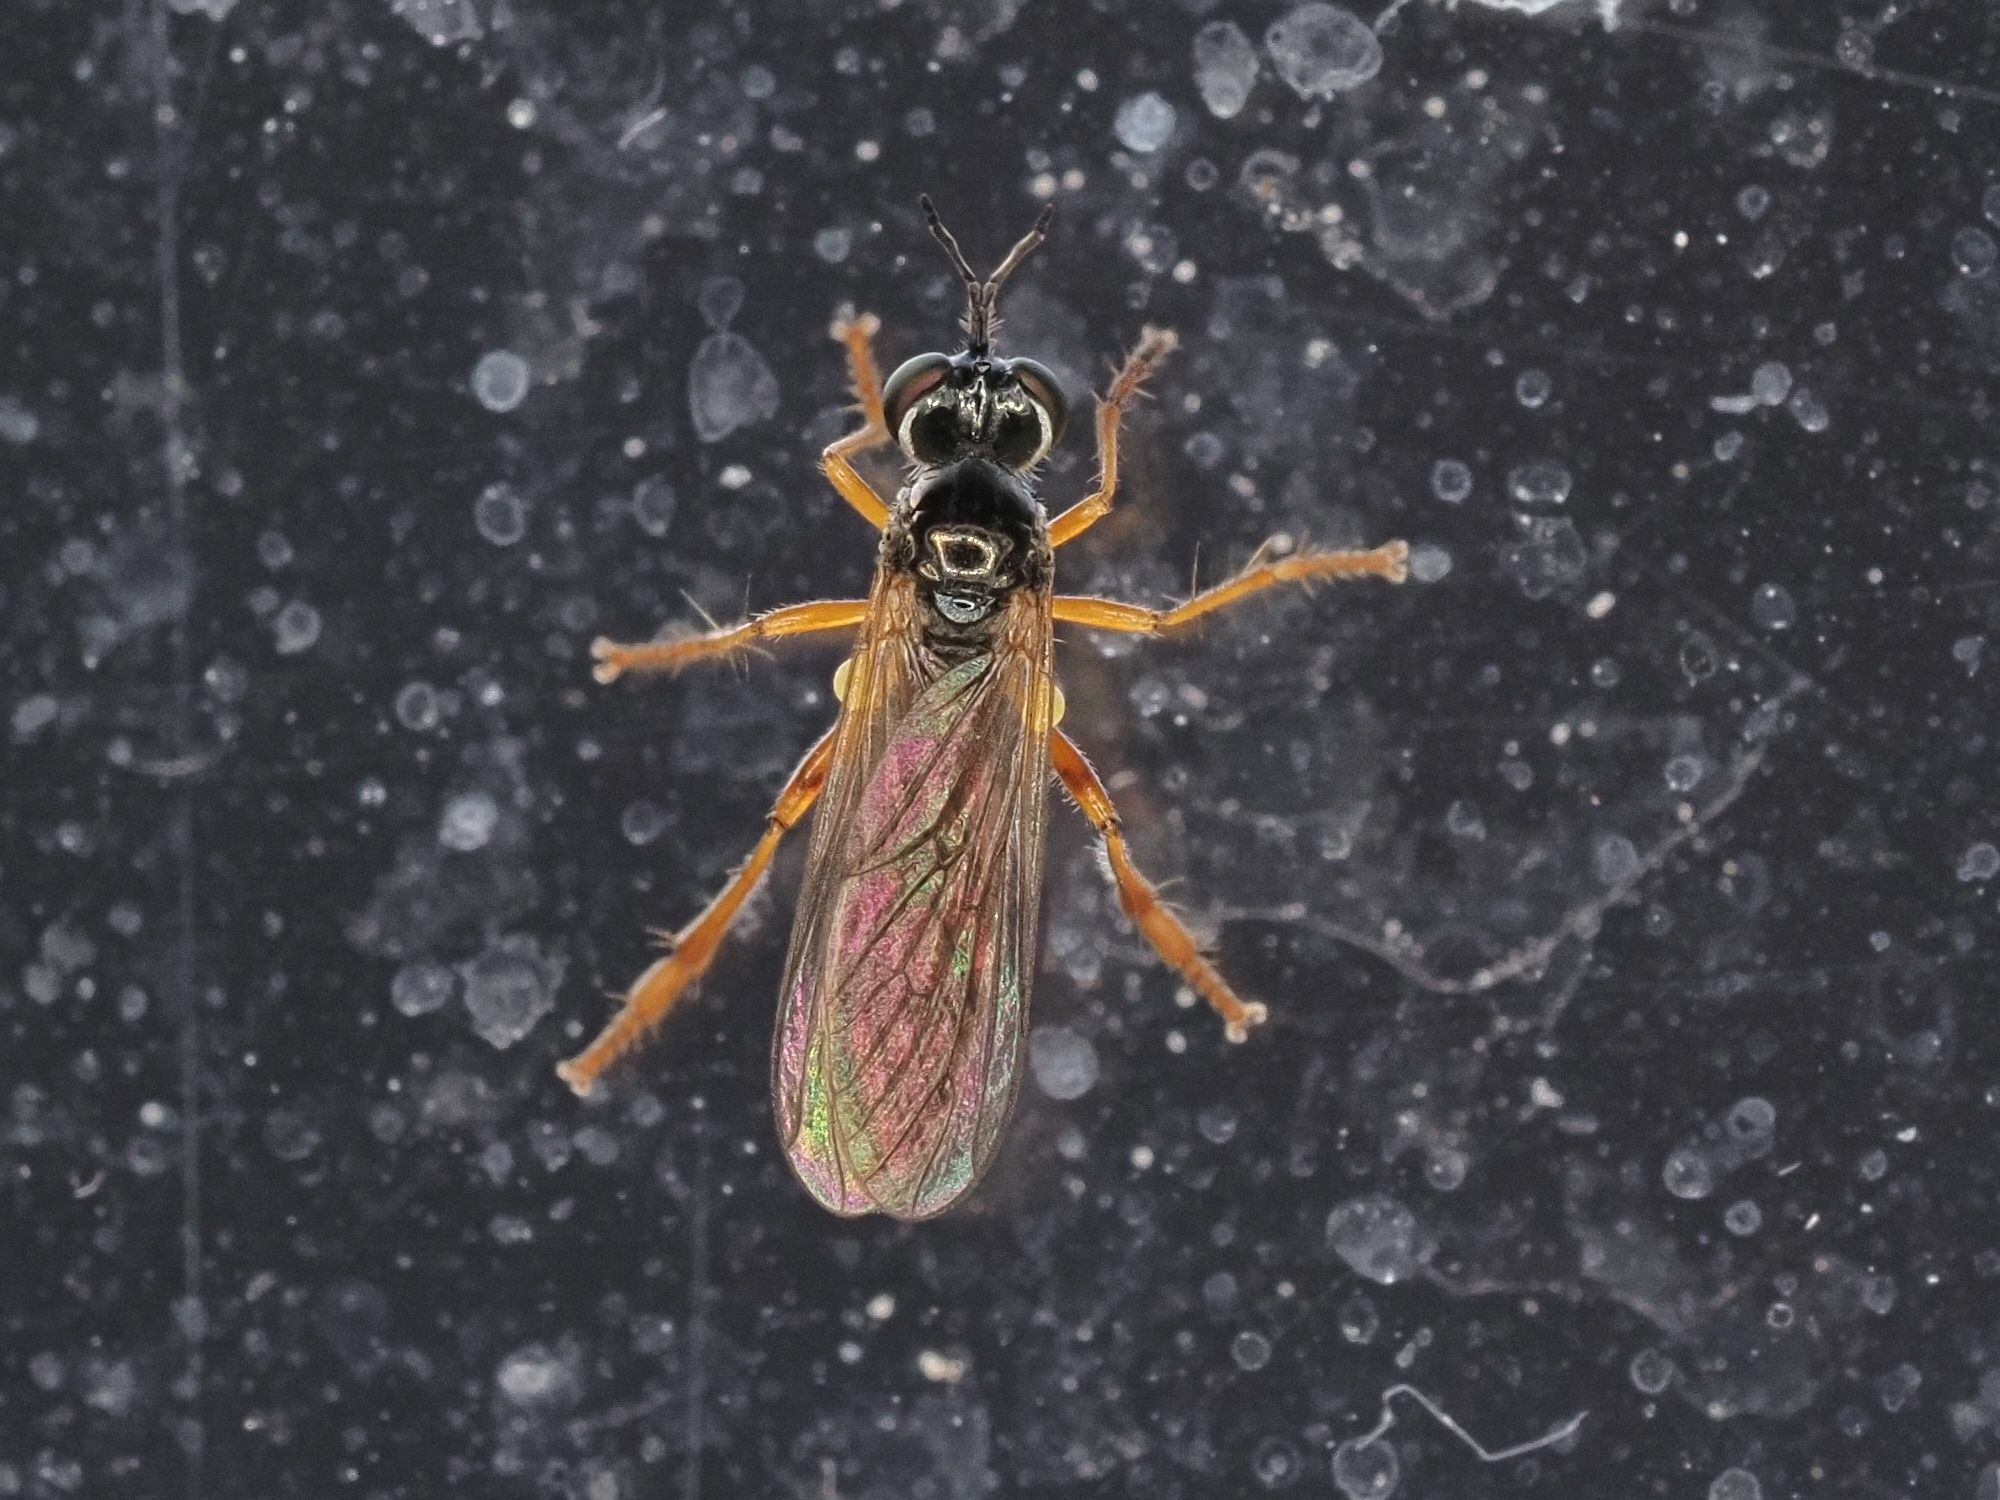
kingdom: Animalia
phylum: Arthropoda
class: Insecta
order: Diptera
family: Asilidae
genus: Dioctria
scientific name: Dioctria lateralis
